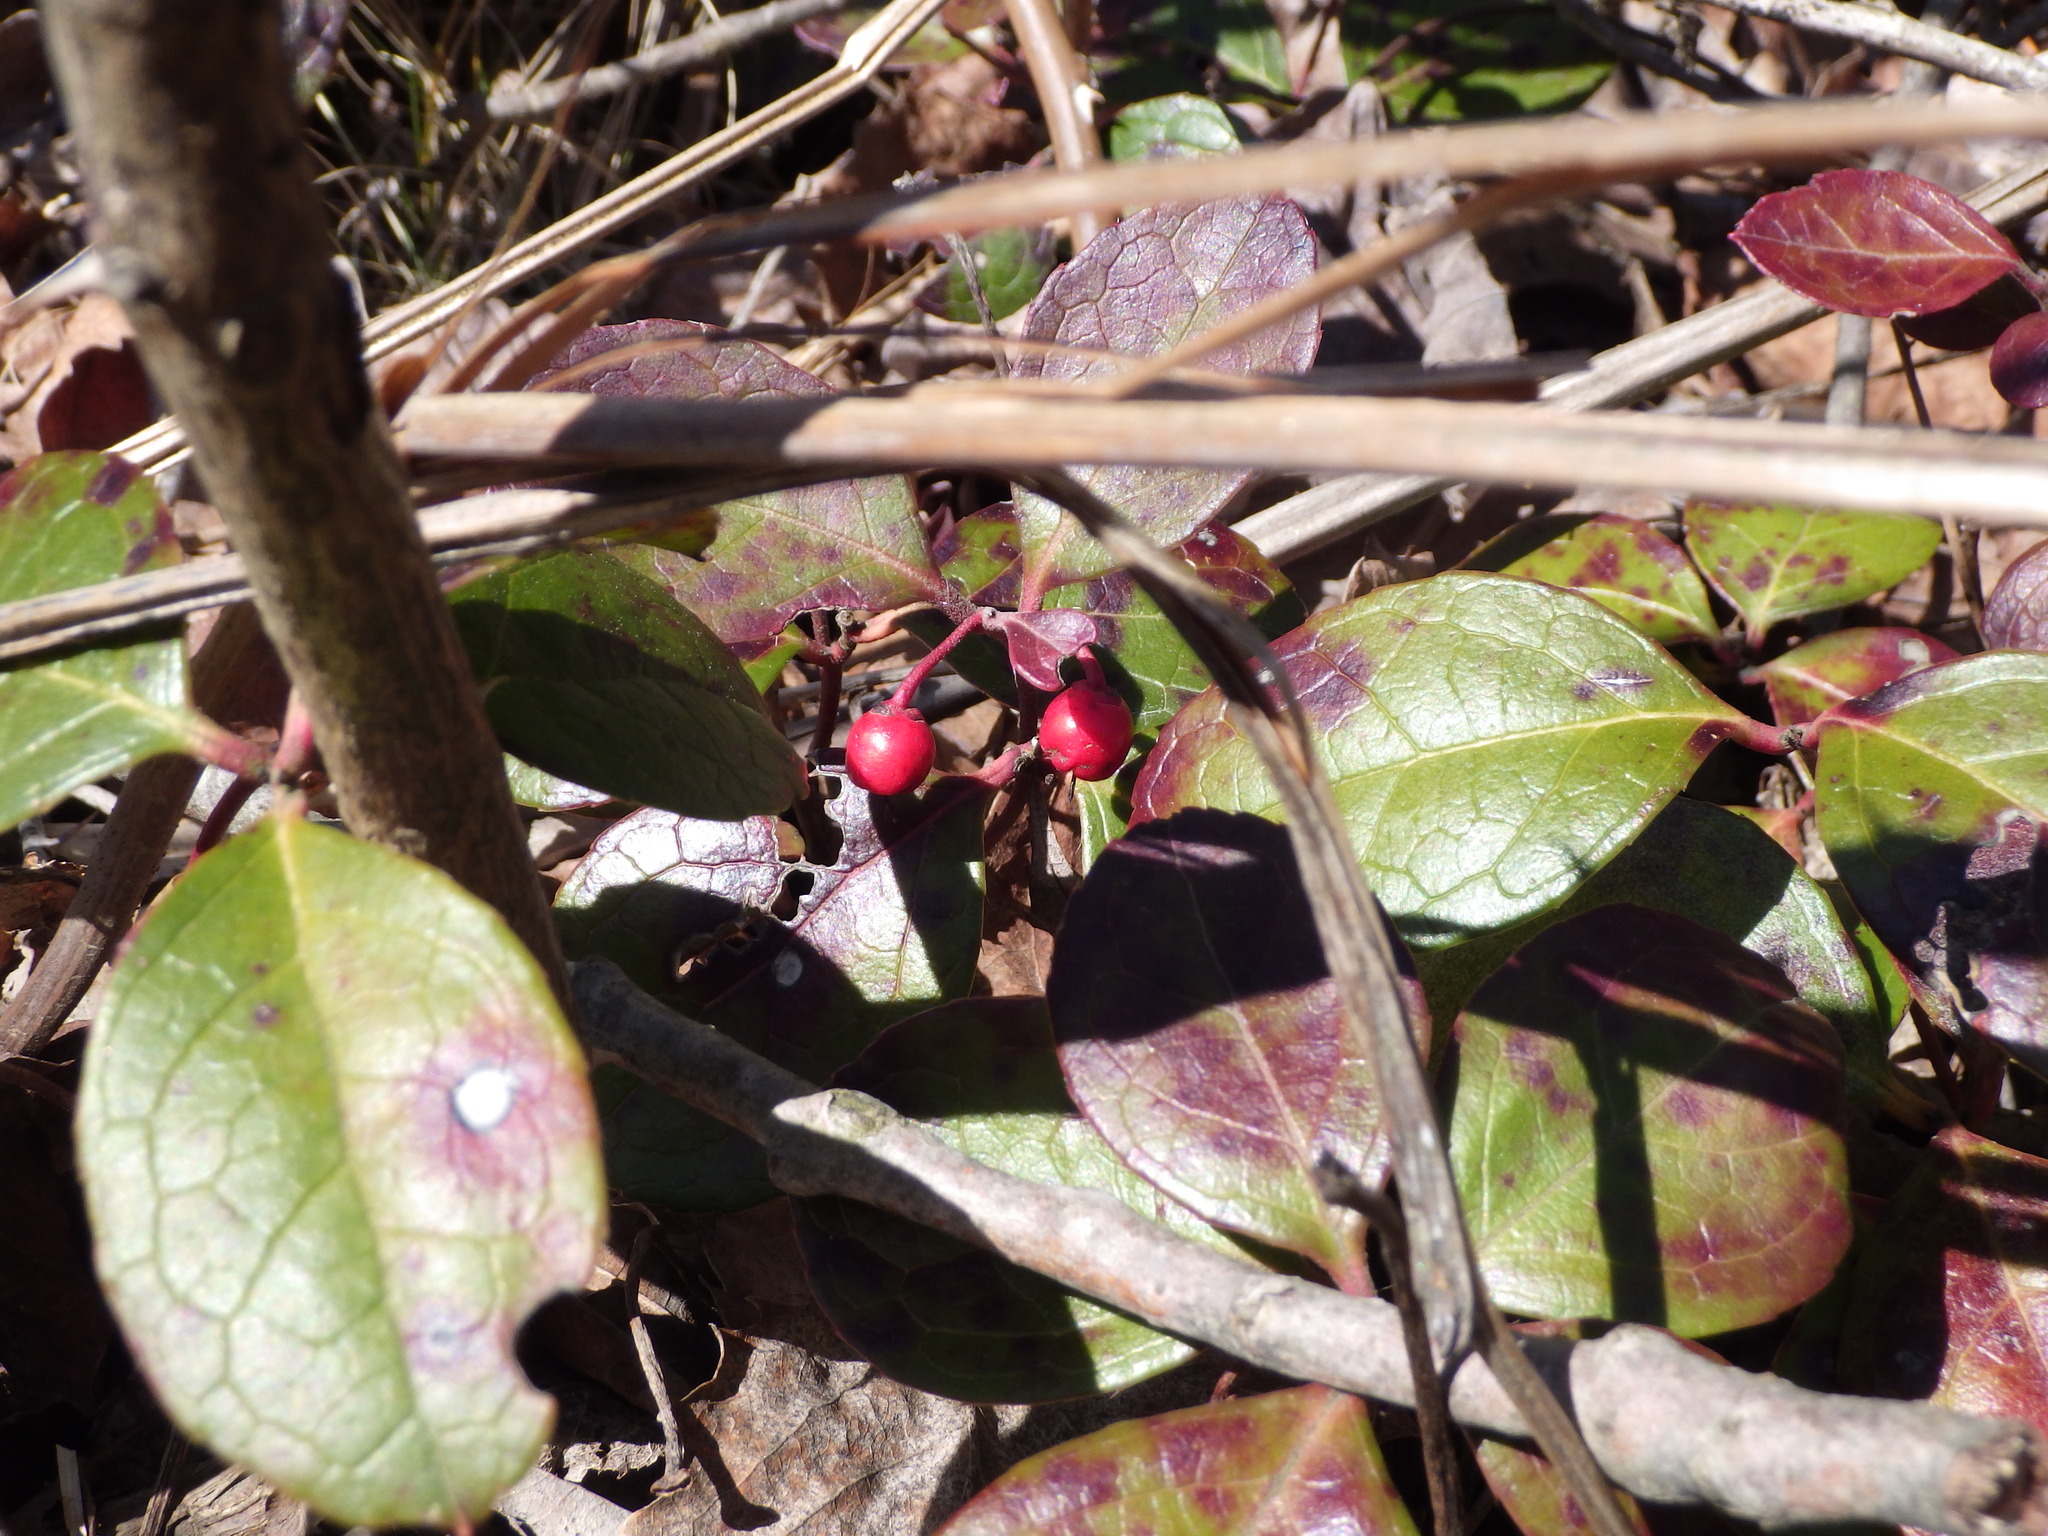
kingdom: Plantae
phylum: Tracheophyta
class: Magnoliopsida
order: Ericales
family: Ericaceae
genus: Gaultheria
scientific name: Gaultheria procumbens
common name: Checkerberry
